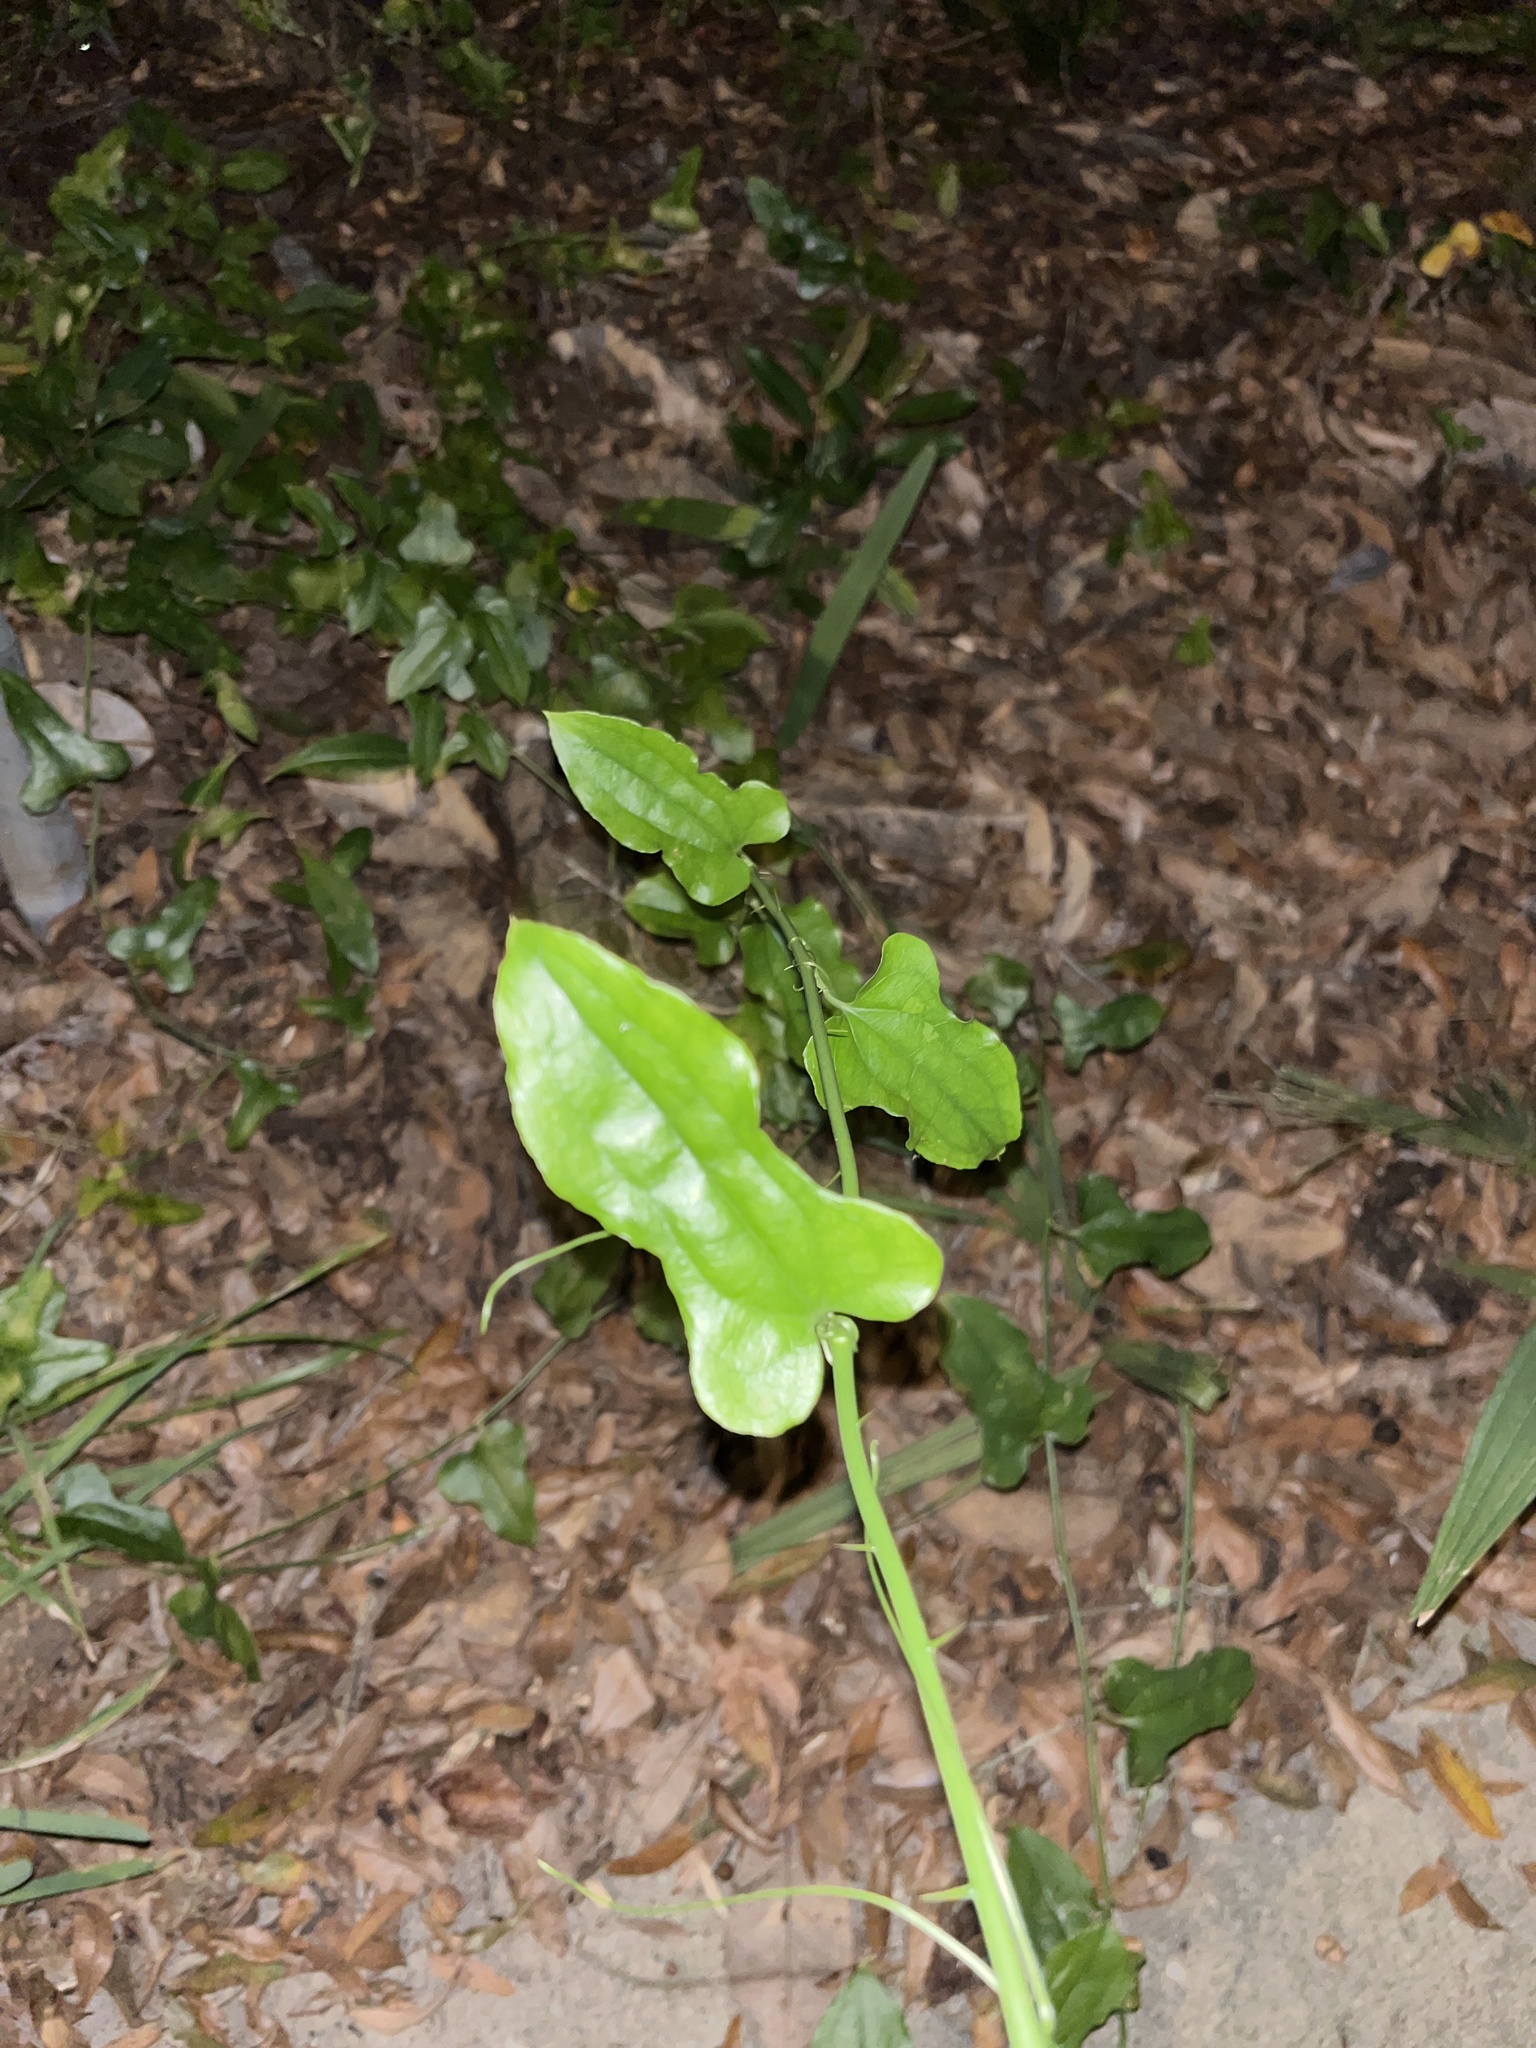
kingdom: Plantae
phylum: Tracheophyta
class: Liliopsida
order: Liliales
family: Smilacaceae
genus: Smilax
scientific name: Smilax tamnoides
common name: Hellfetter
